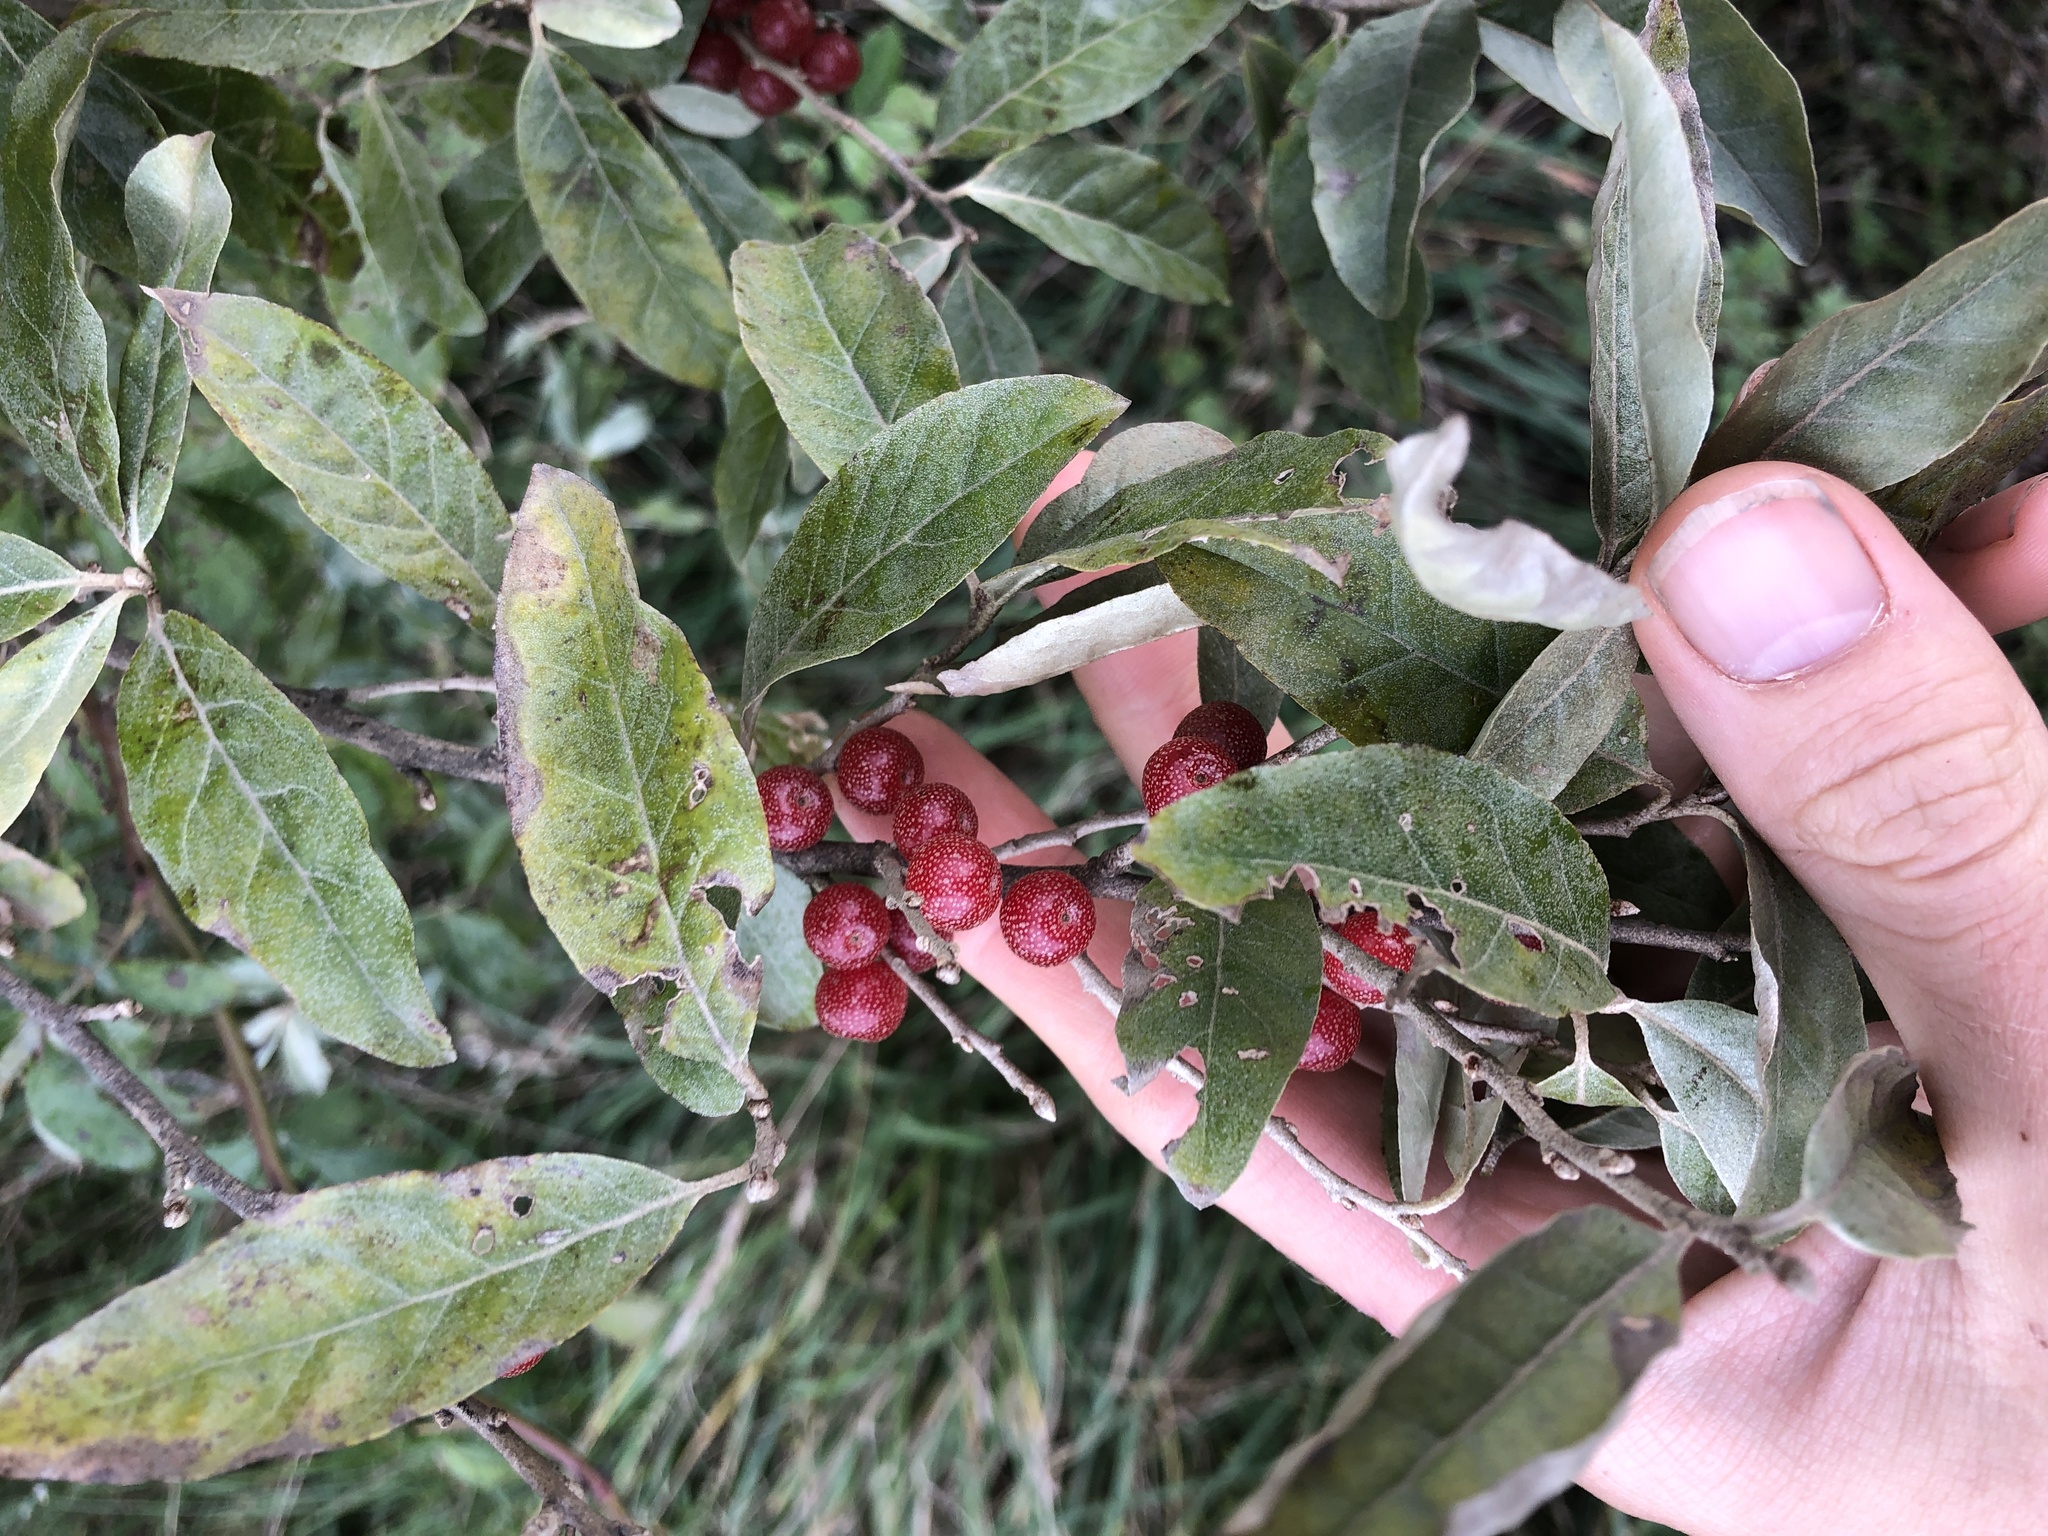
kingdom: Plantae
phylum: Tracheophyta
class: Magnoliopsida
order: Rosales
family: Elaeagnaceae
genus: Elaeagnus
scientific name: Elaeagnus umbellata
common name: Autumn olive
